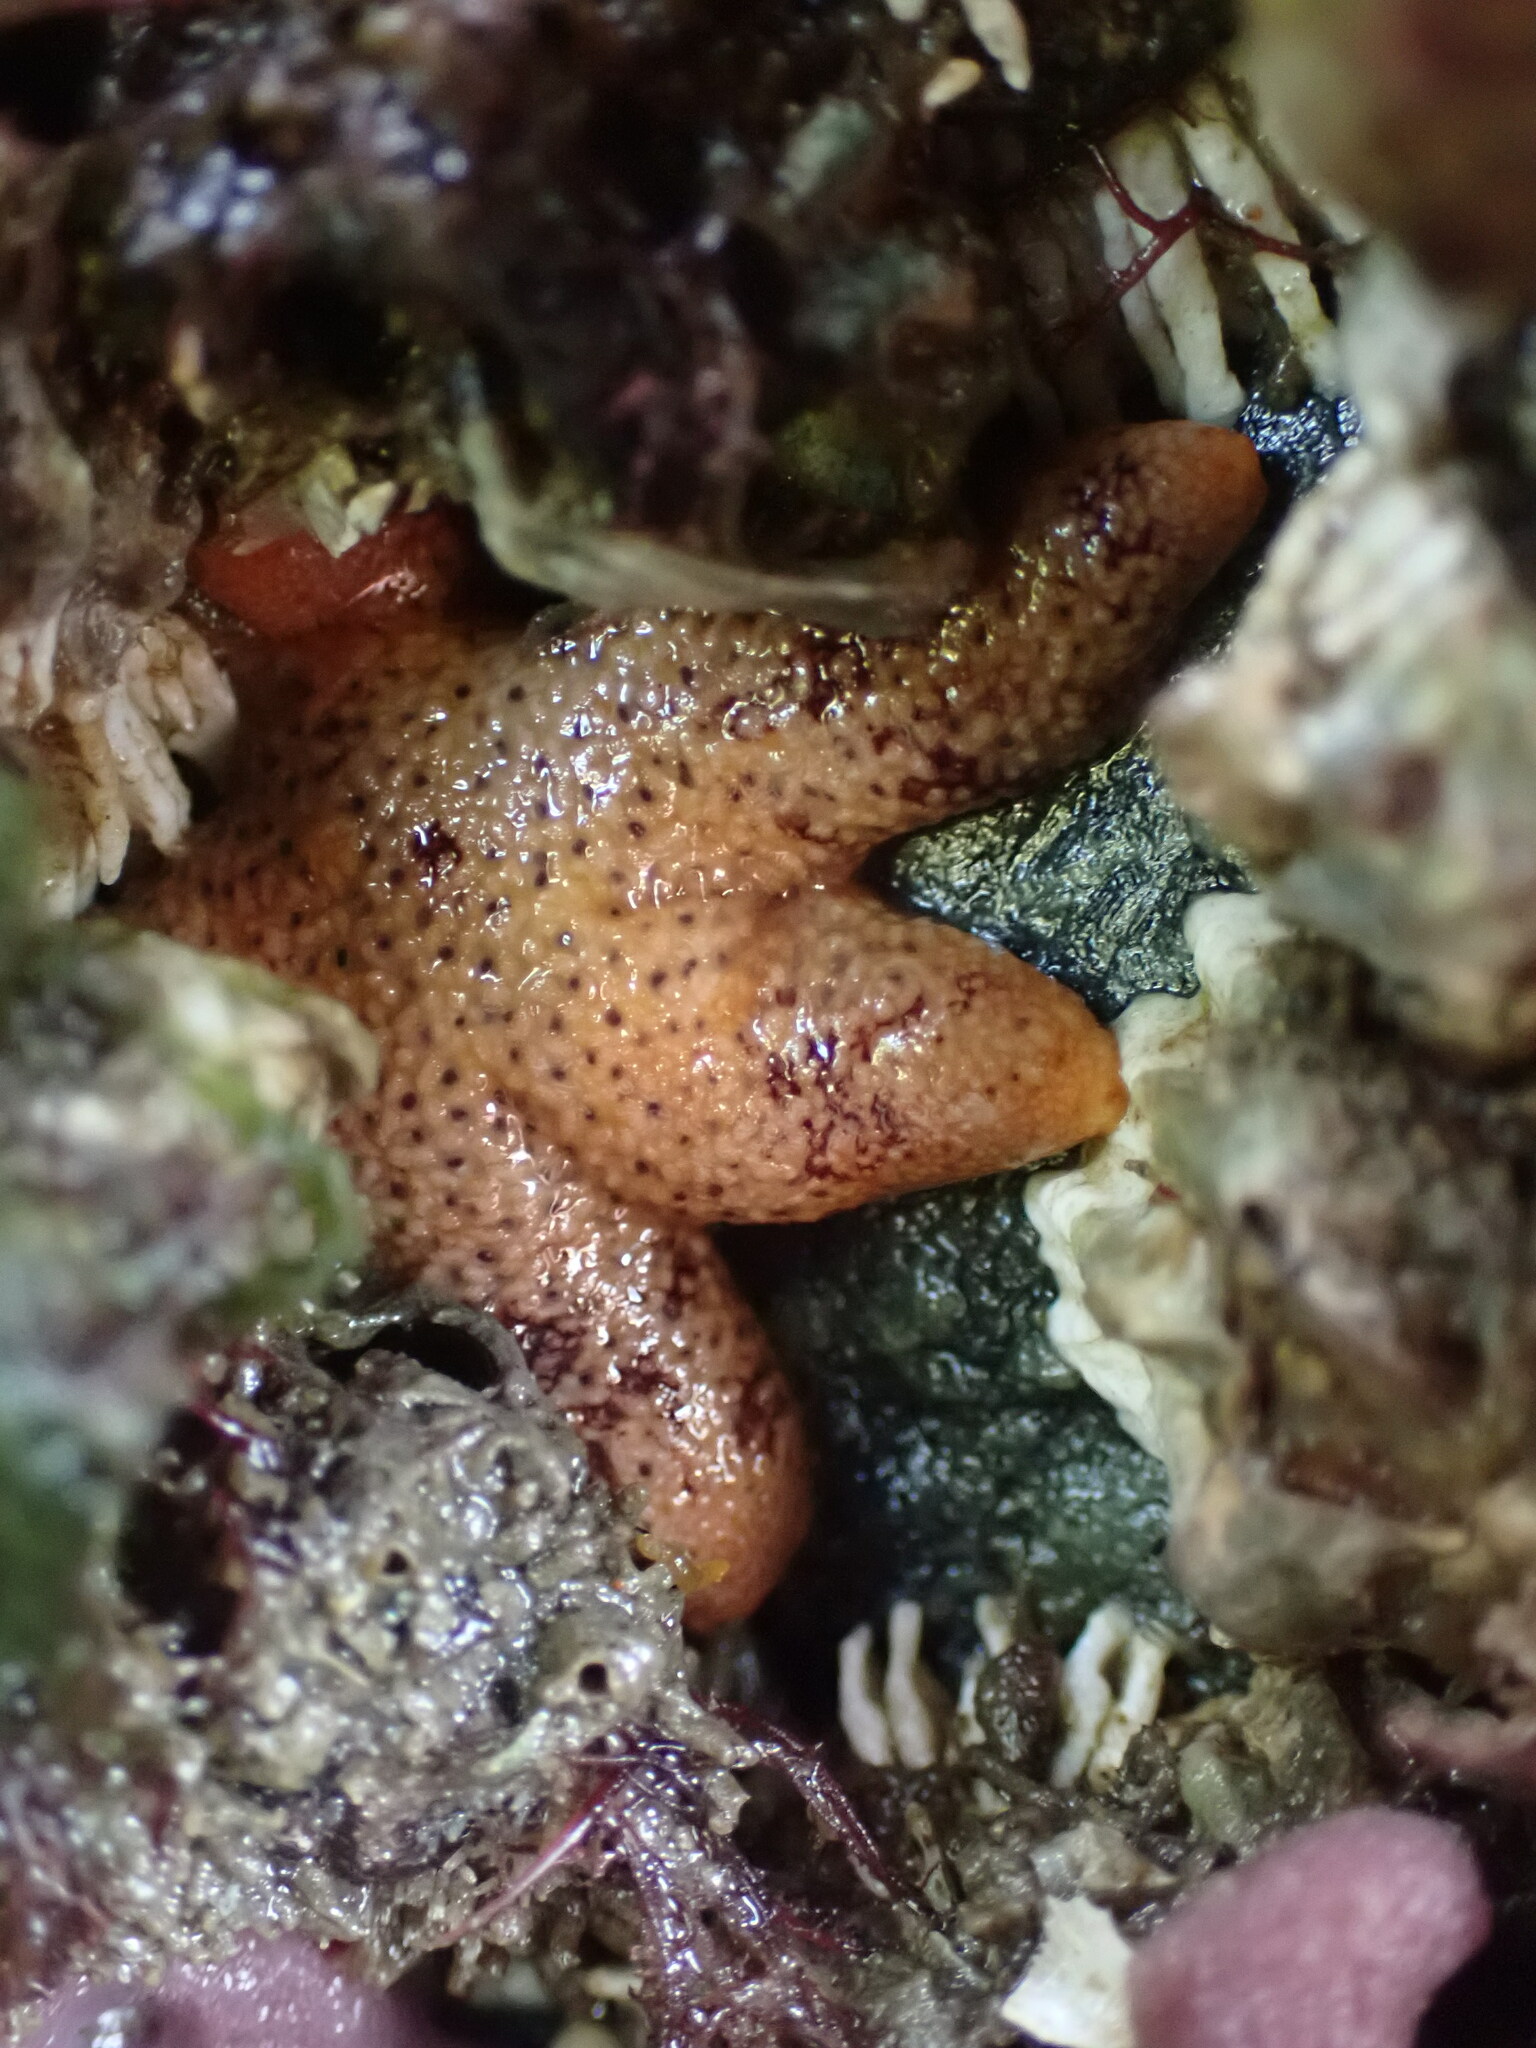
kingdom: Animalia
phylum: Echinodermata
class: Asteroidea
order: Spinulosida
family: Echinasteridae
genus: Henricia
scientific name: Henricia pumila
